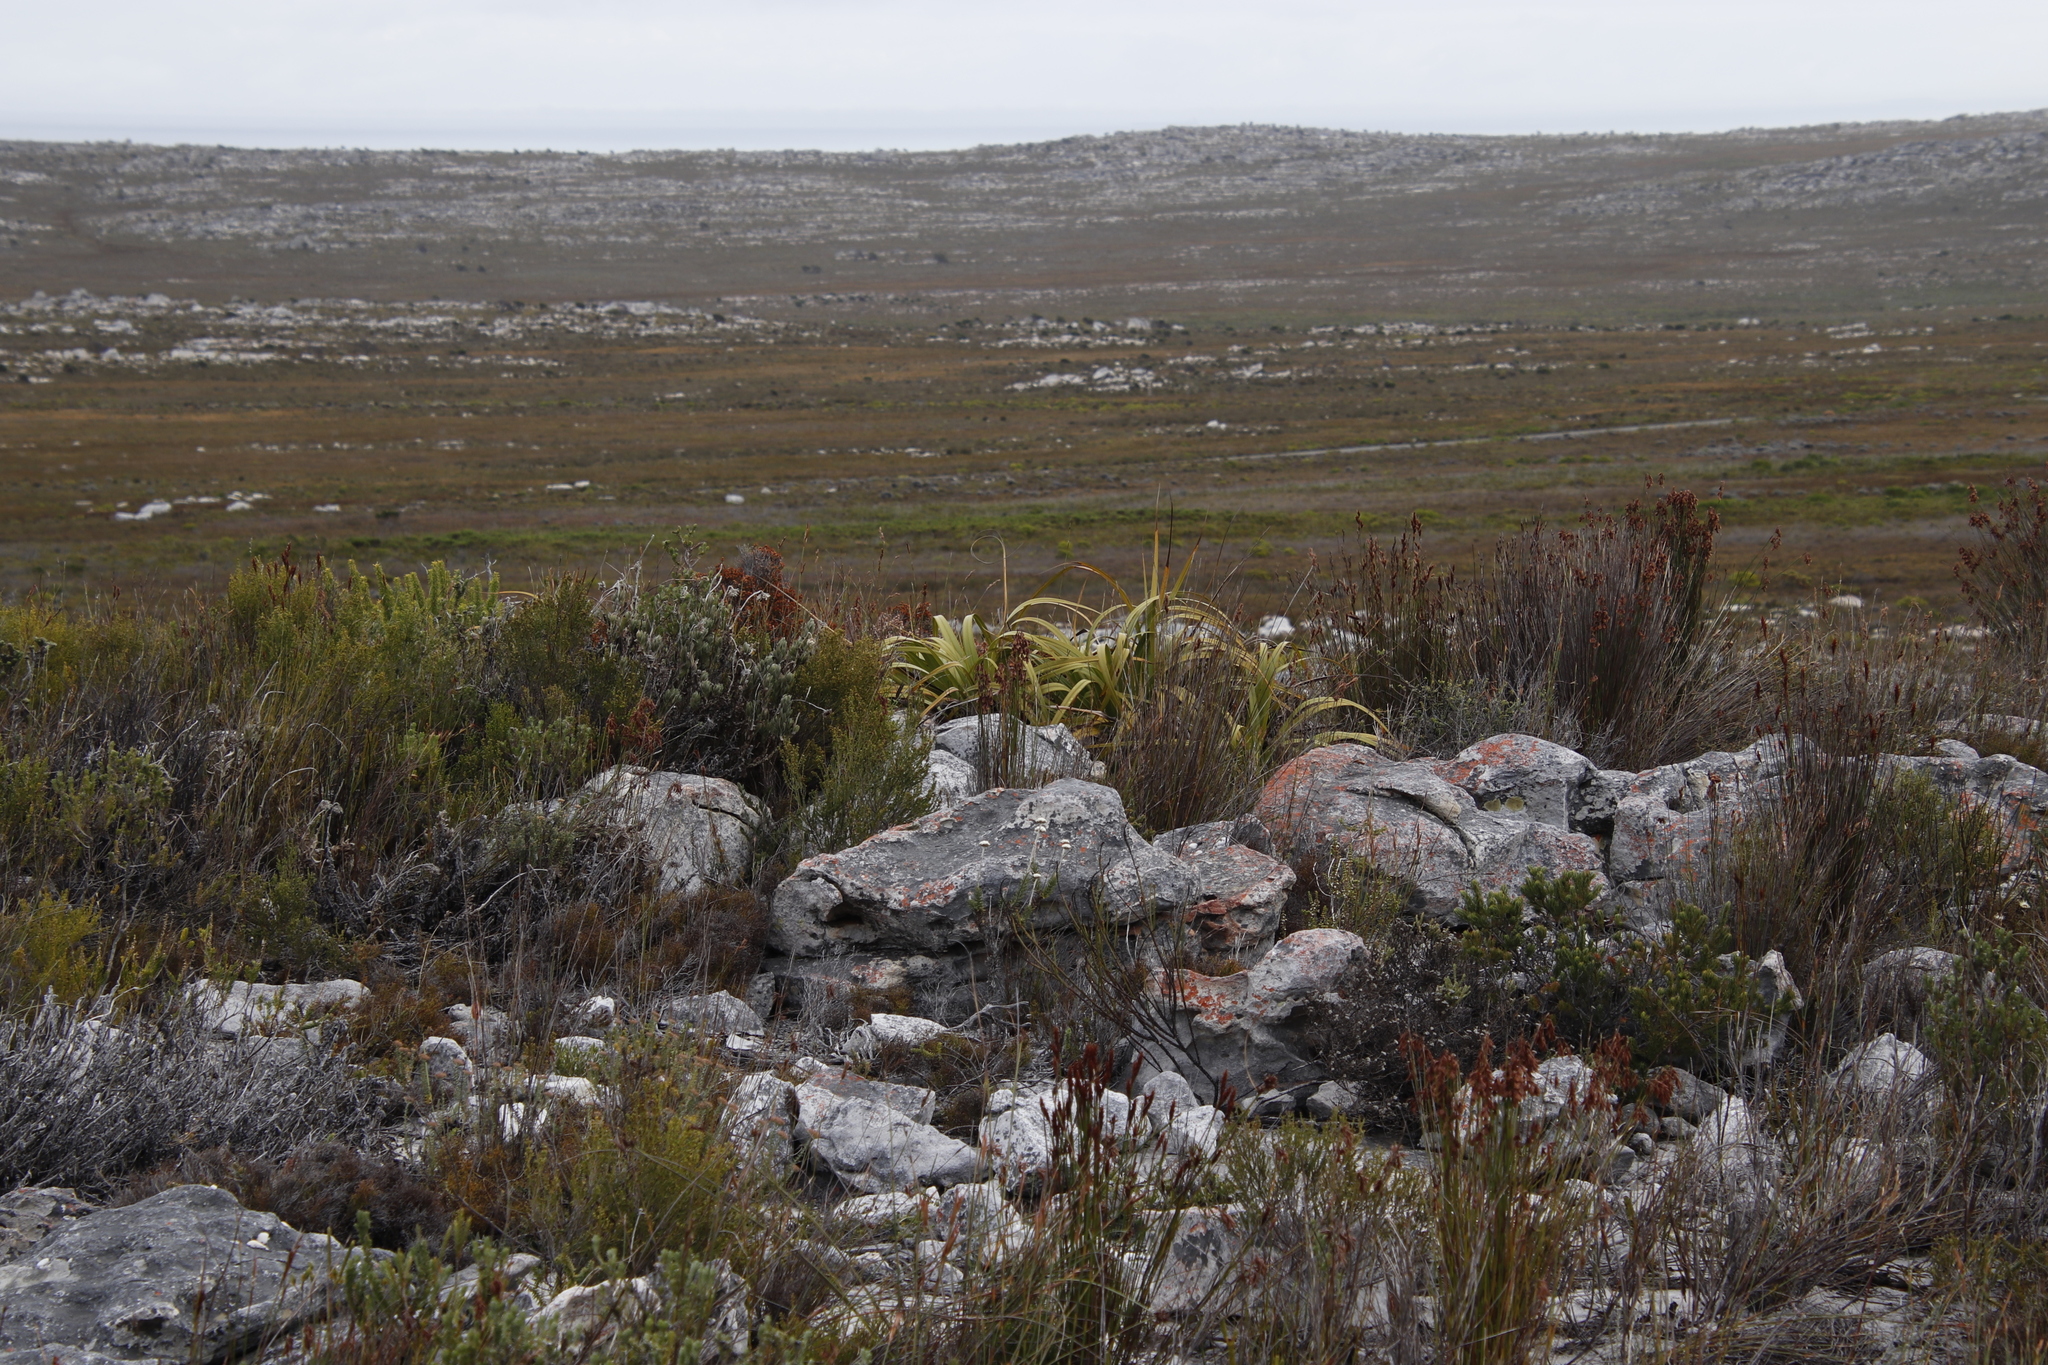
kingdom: Plantae
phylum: Tracheophyta
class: Liliopsida
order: Poales
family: Cyperaceae
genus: Tetraria
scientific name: Tetraria thermalis
